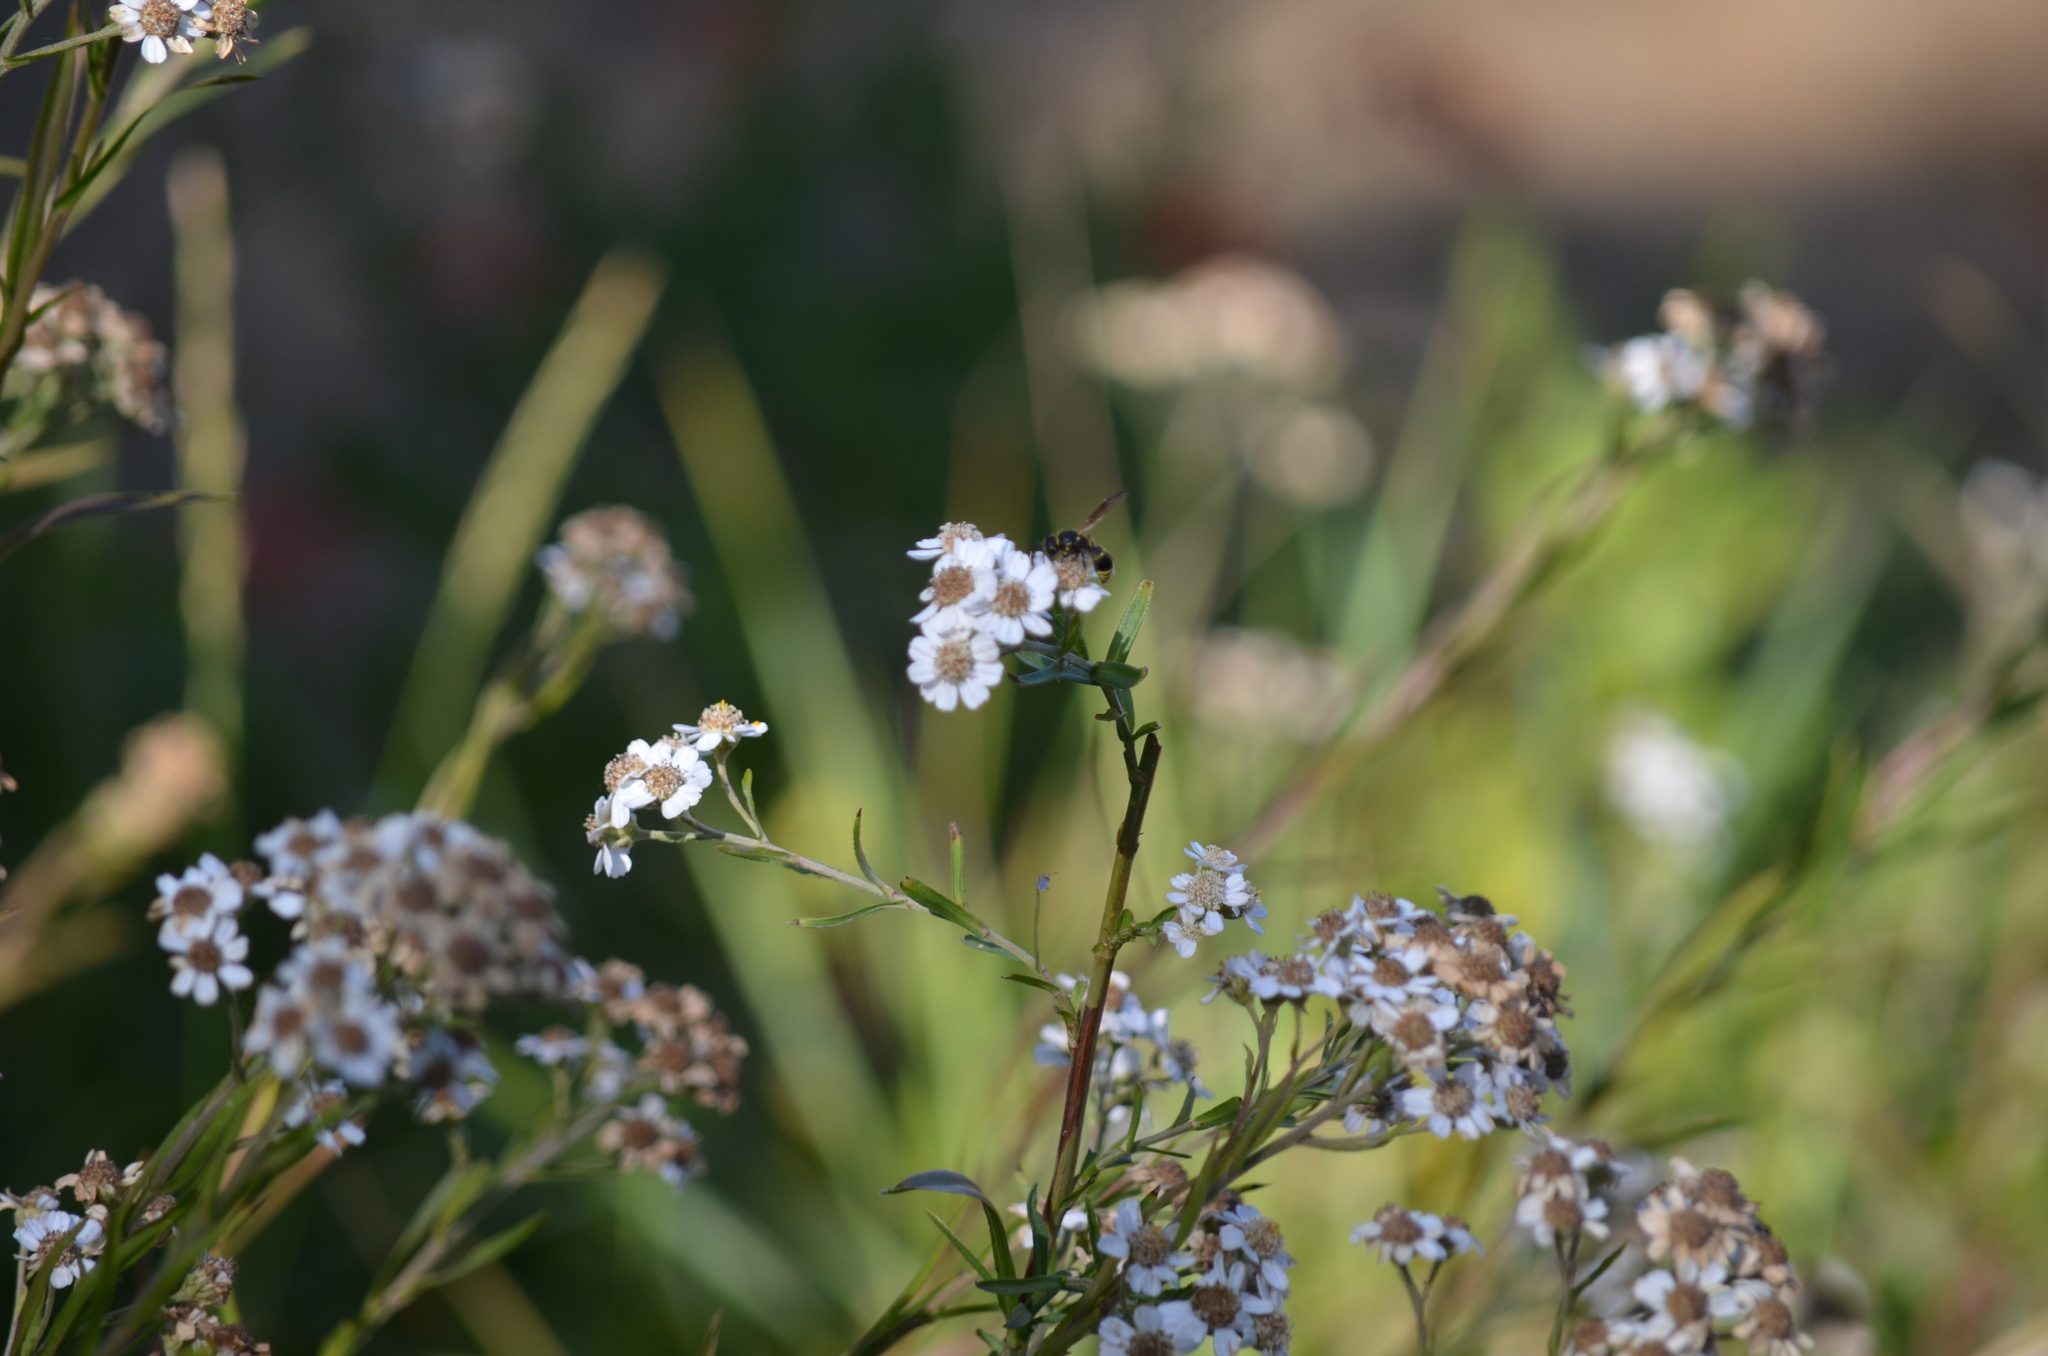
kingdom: Animalia
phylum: Arthropoda
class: Insecta
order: Hymenoptera
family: Vespidae
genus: Ancistrocerus
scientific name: Ancistrocerus
